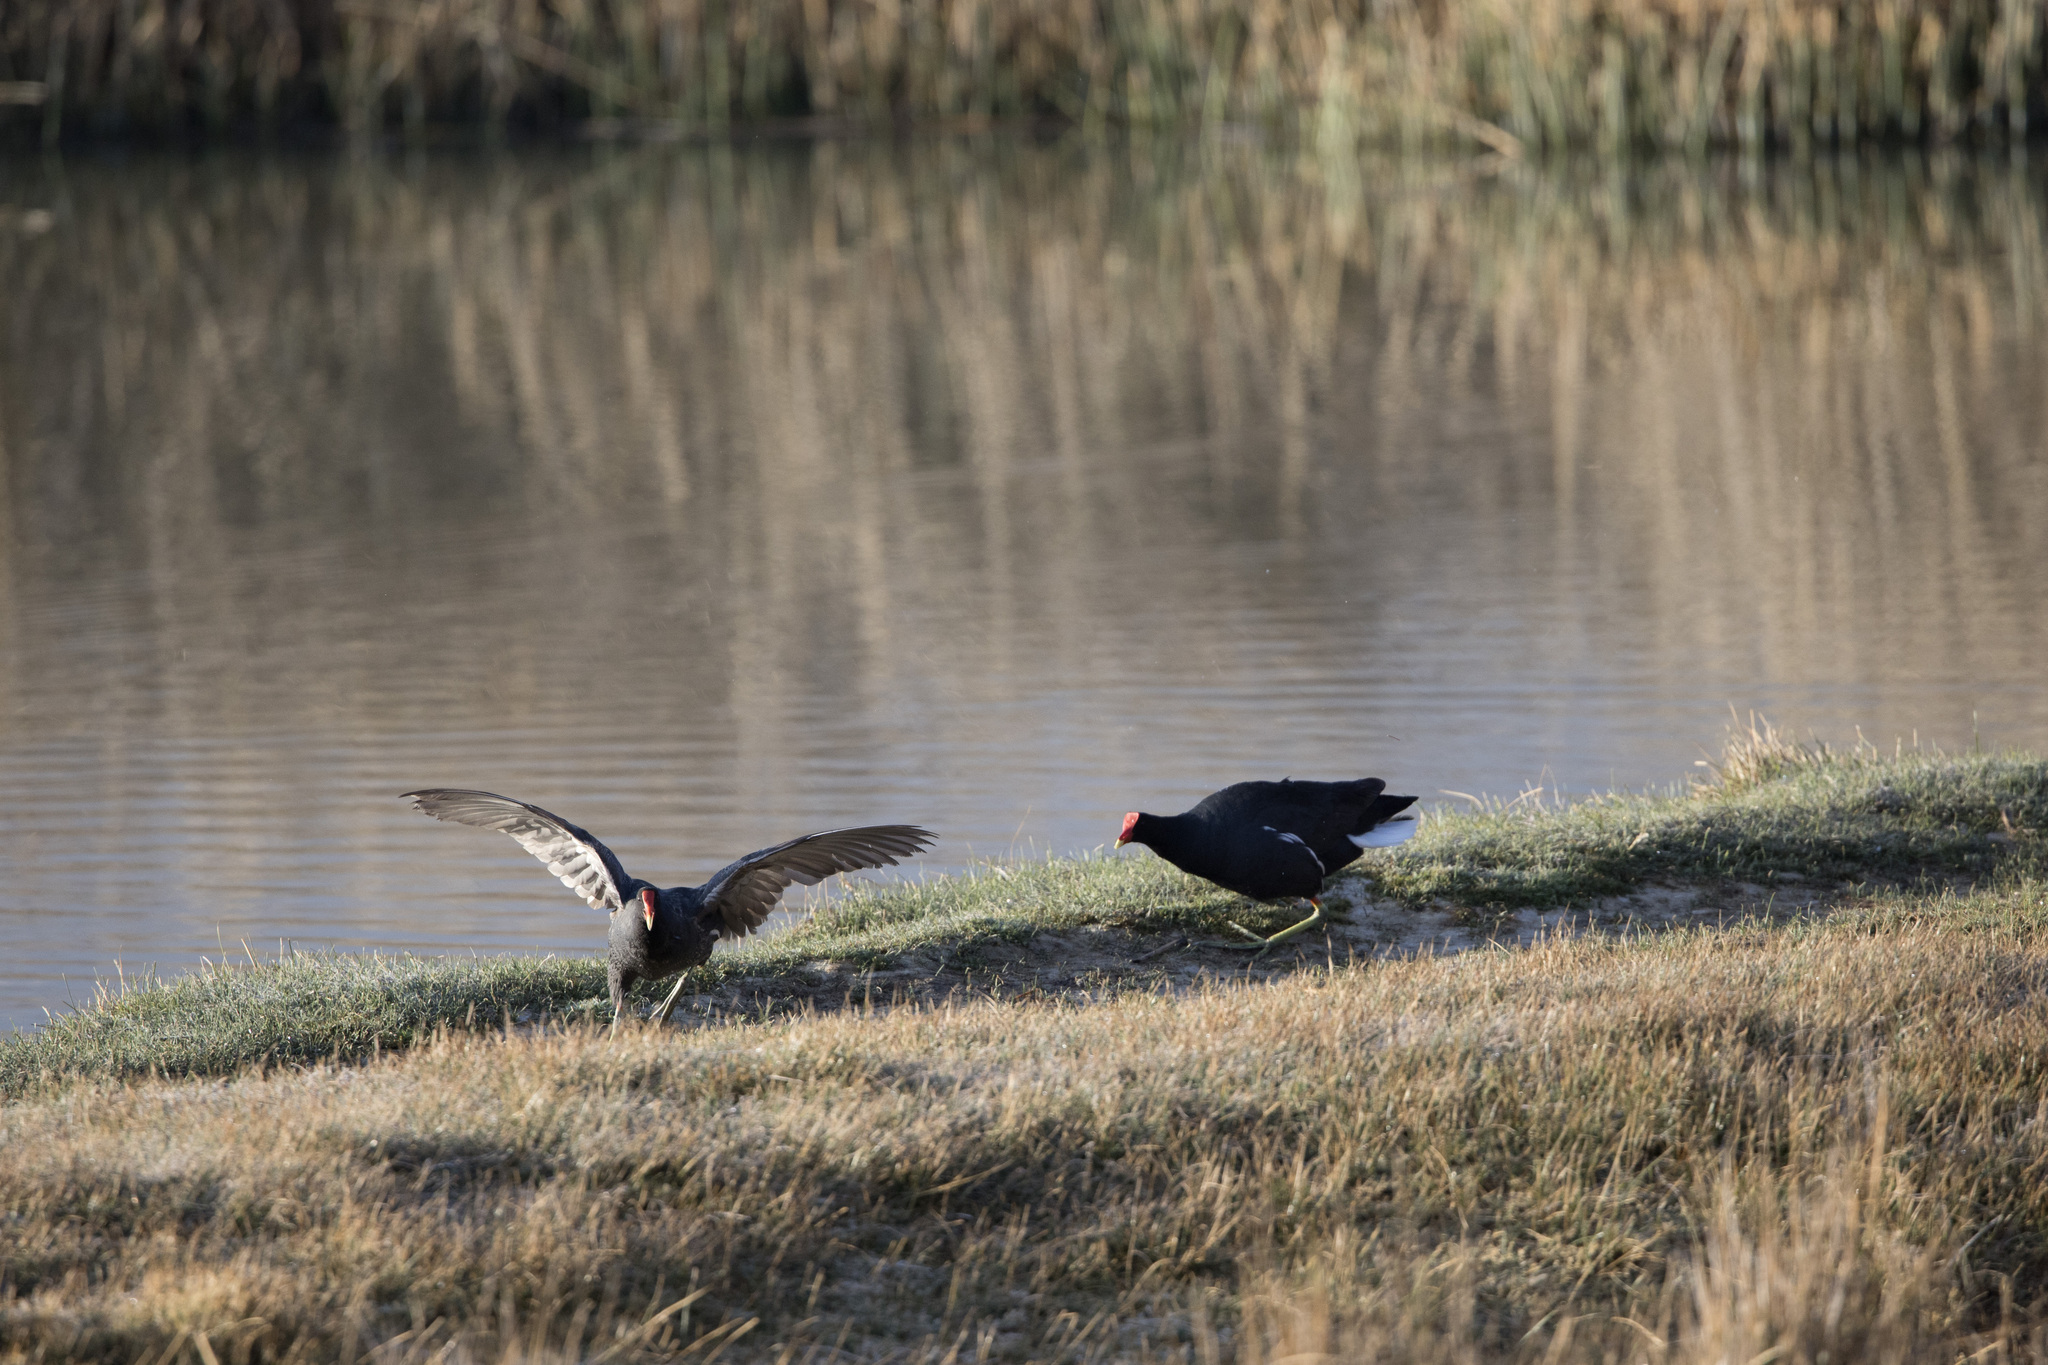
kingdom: Animalia
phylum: Chordata
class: Aves
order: Gruiformes
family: Rallidae
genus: Gallinula
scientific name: Gallinula chloropus
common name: Common moorhen
